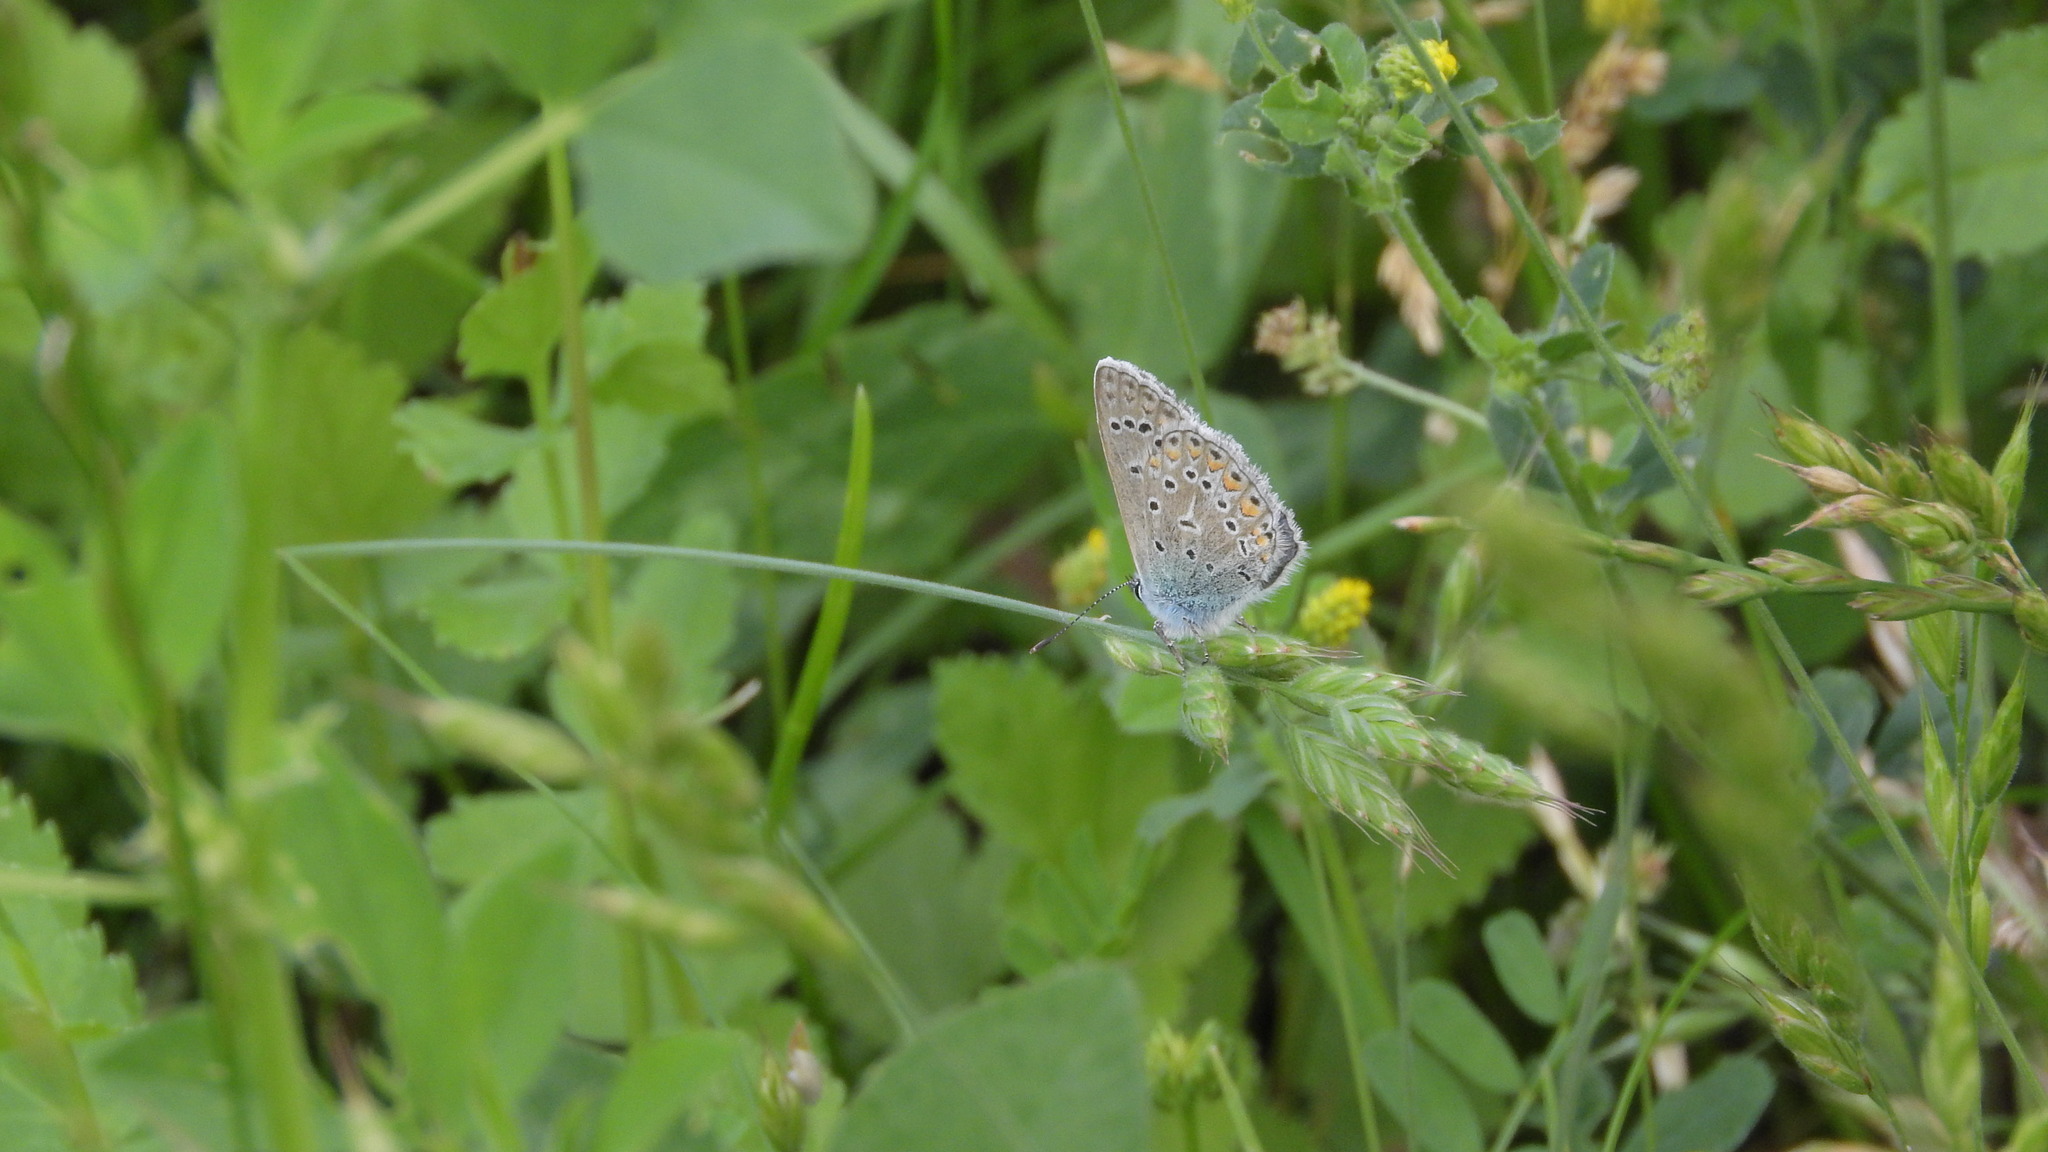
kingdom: Animalia
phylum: Arthropoda
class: Insecta
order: Lepidoptera
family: Lycaenidae
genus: Polyommatus
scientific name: Polyommatus icarus
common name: Common blue
